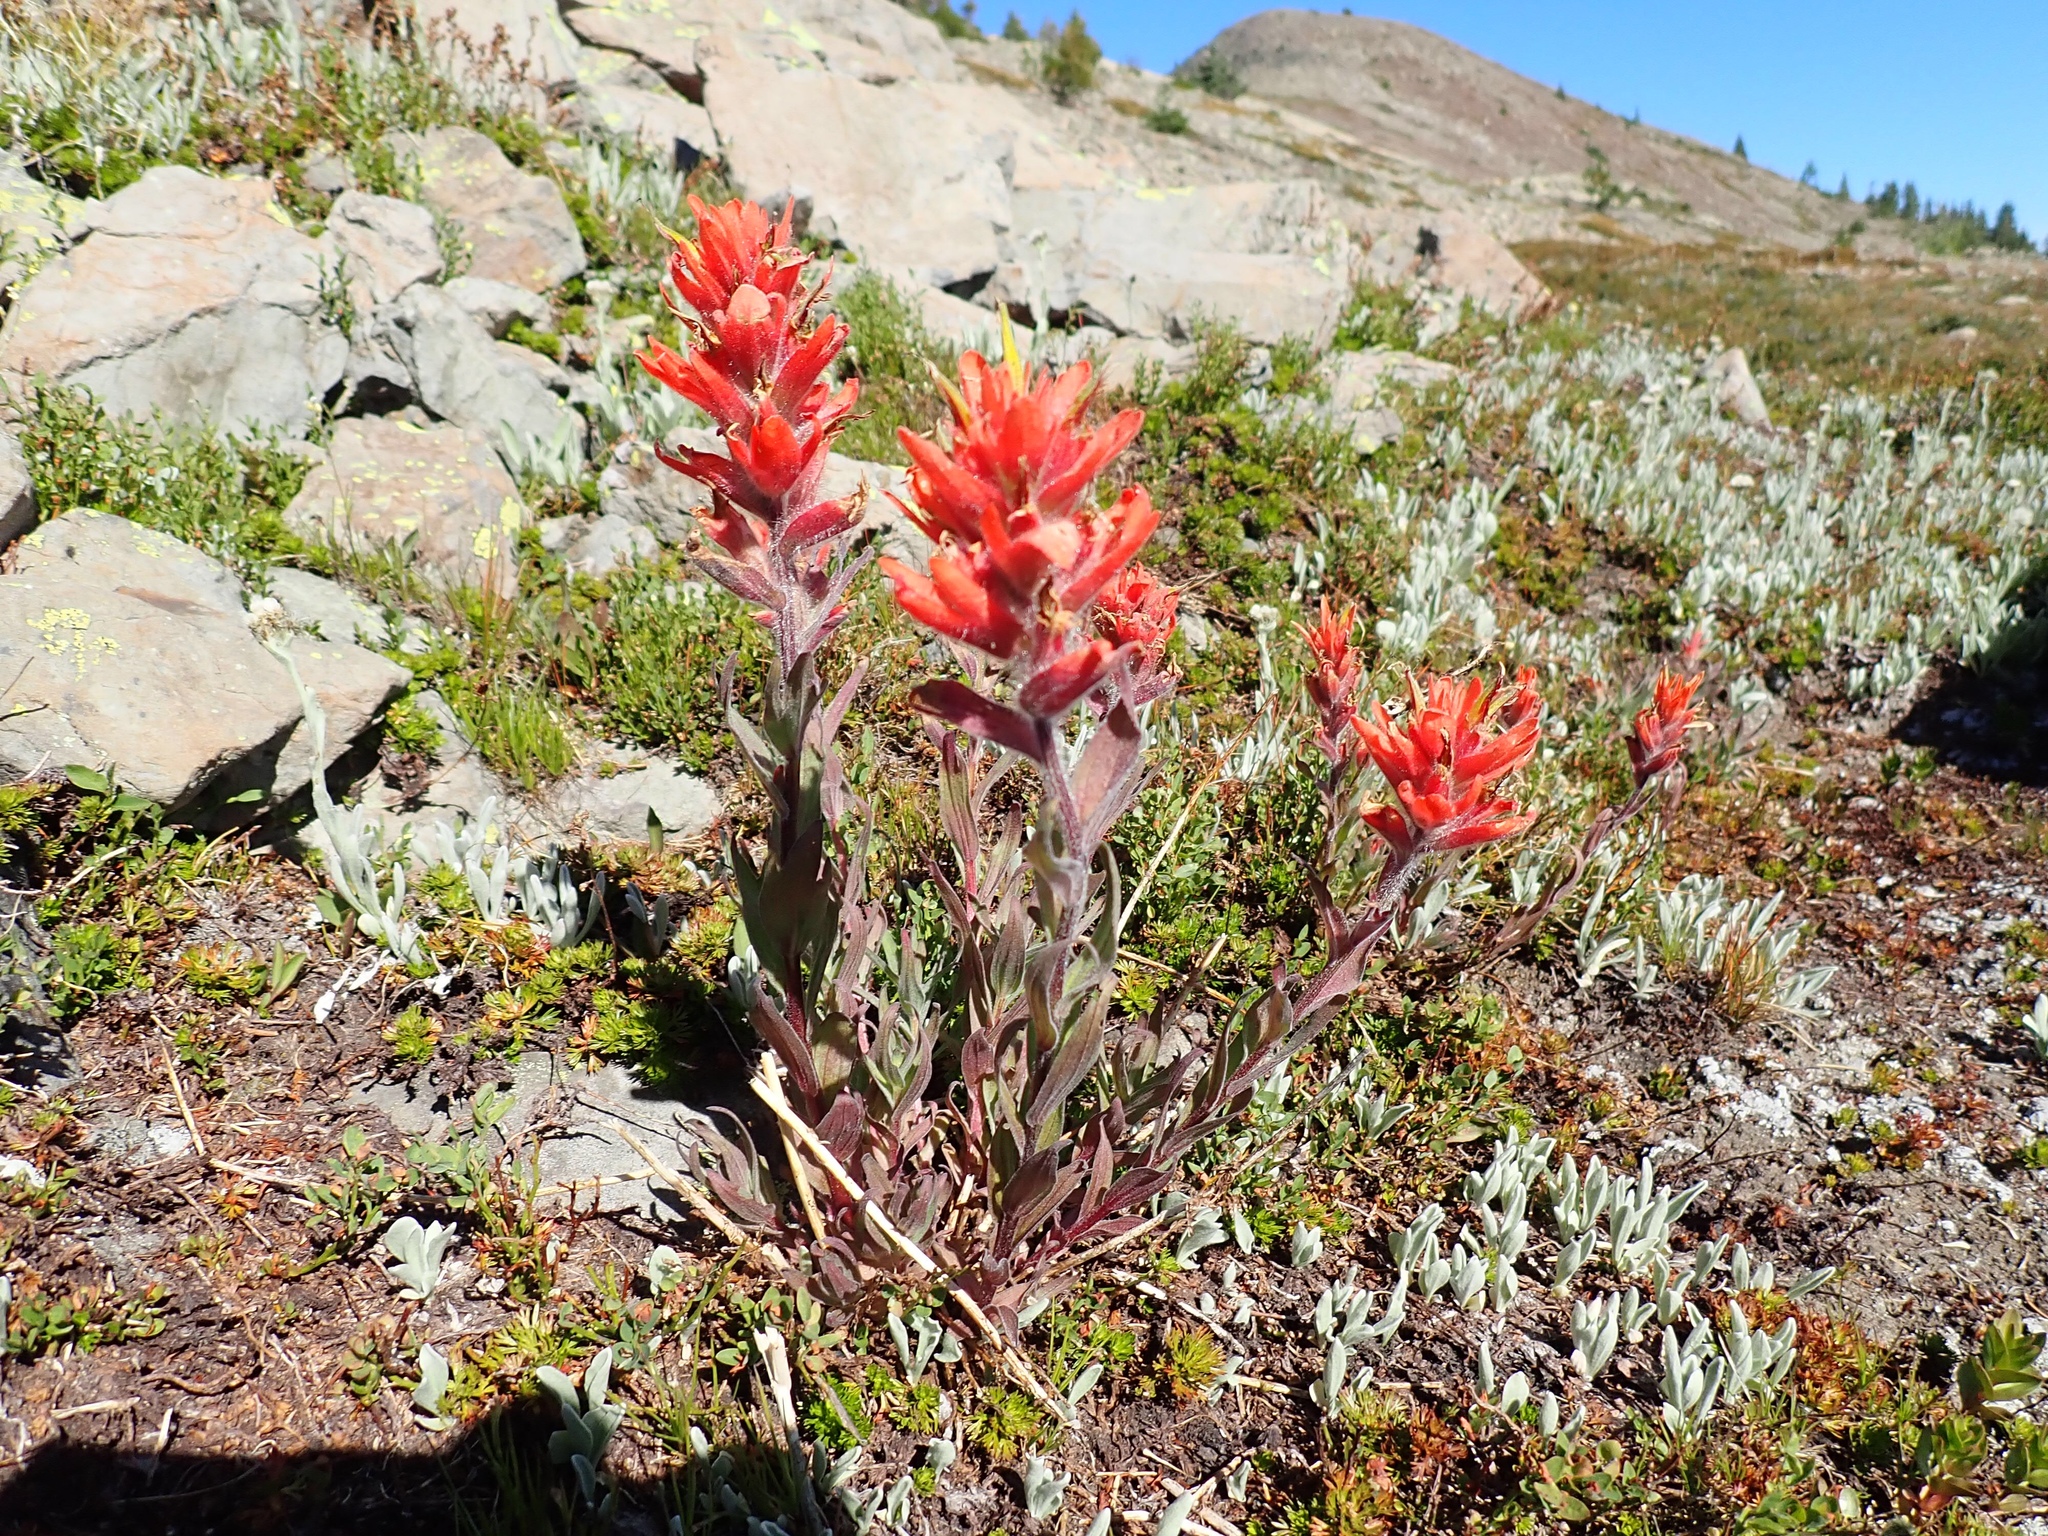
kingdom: Plantae
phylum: Tracheophyta
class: Magnoliopsida
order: Lamiales
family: Orobanchaceae
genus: Castilleja
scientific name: Castilleja elmeri
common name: Elmer's paintbrush
